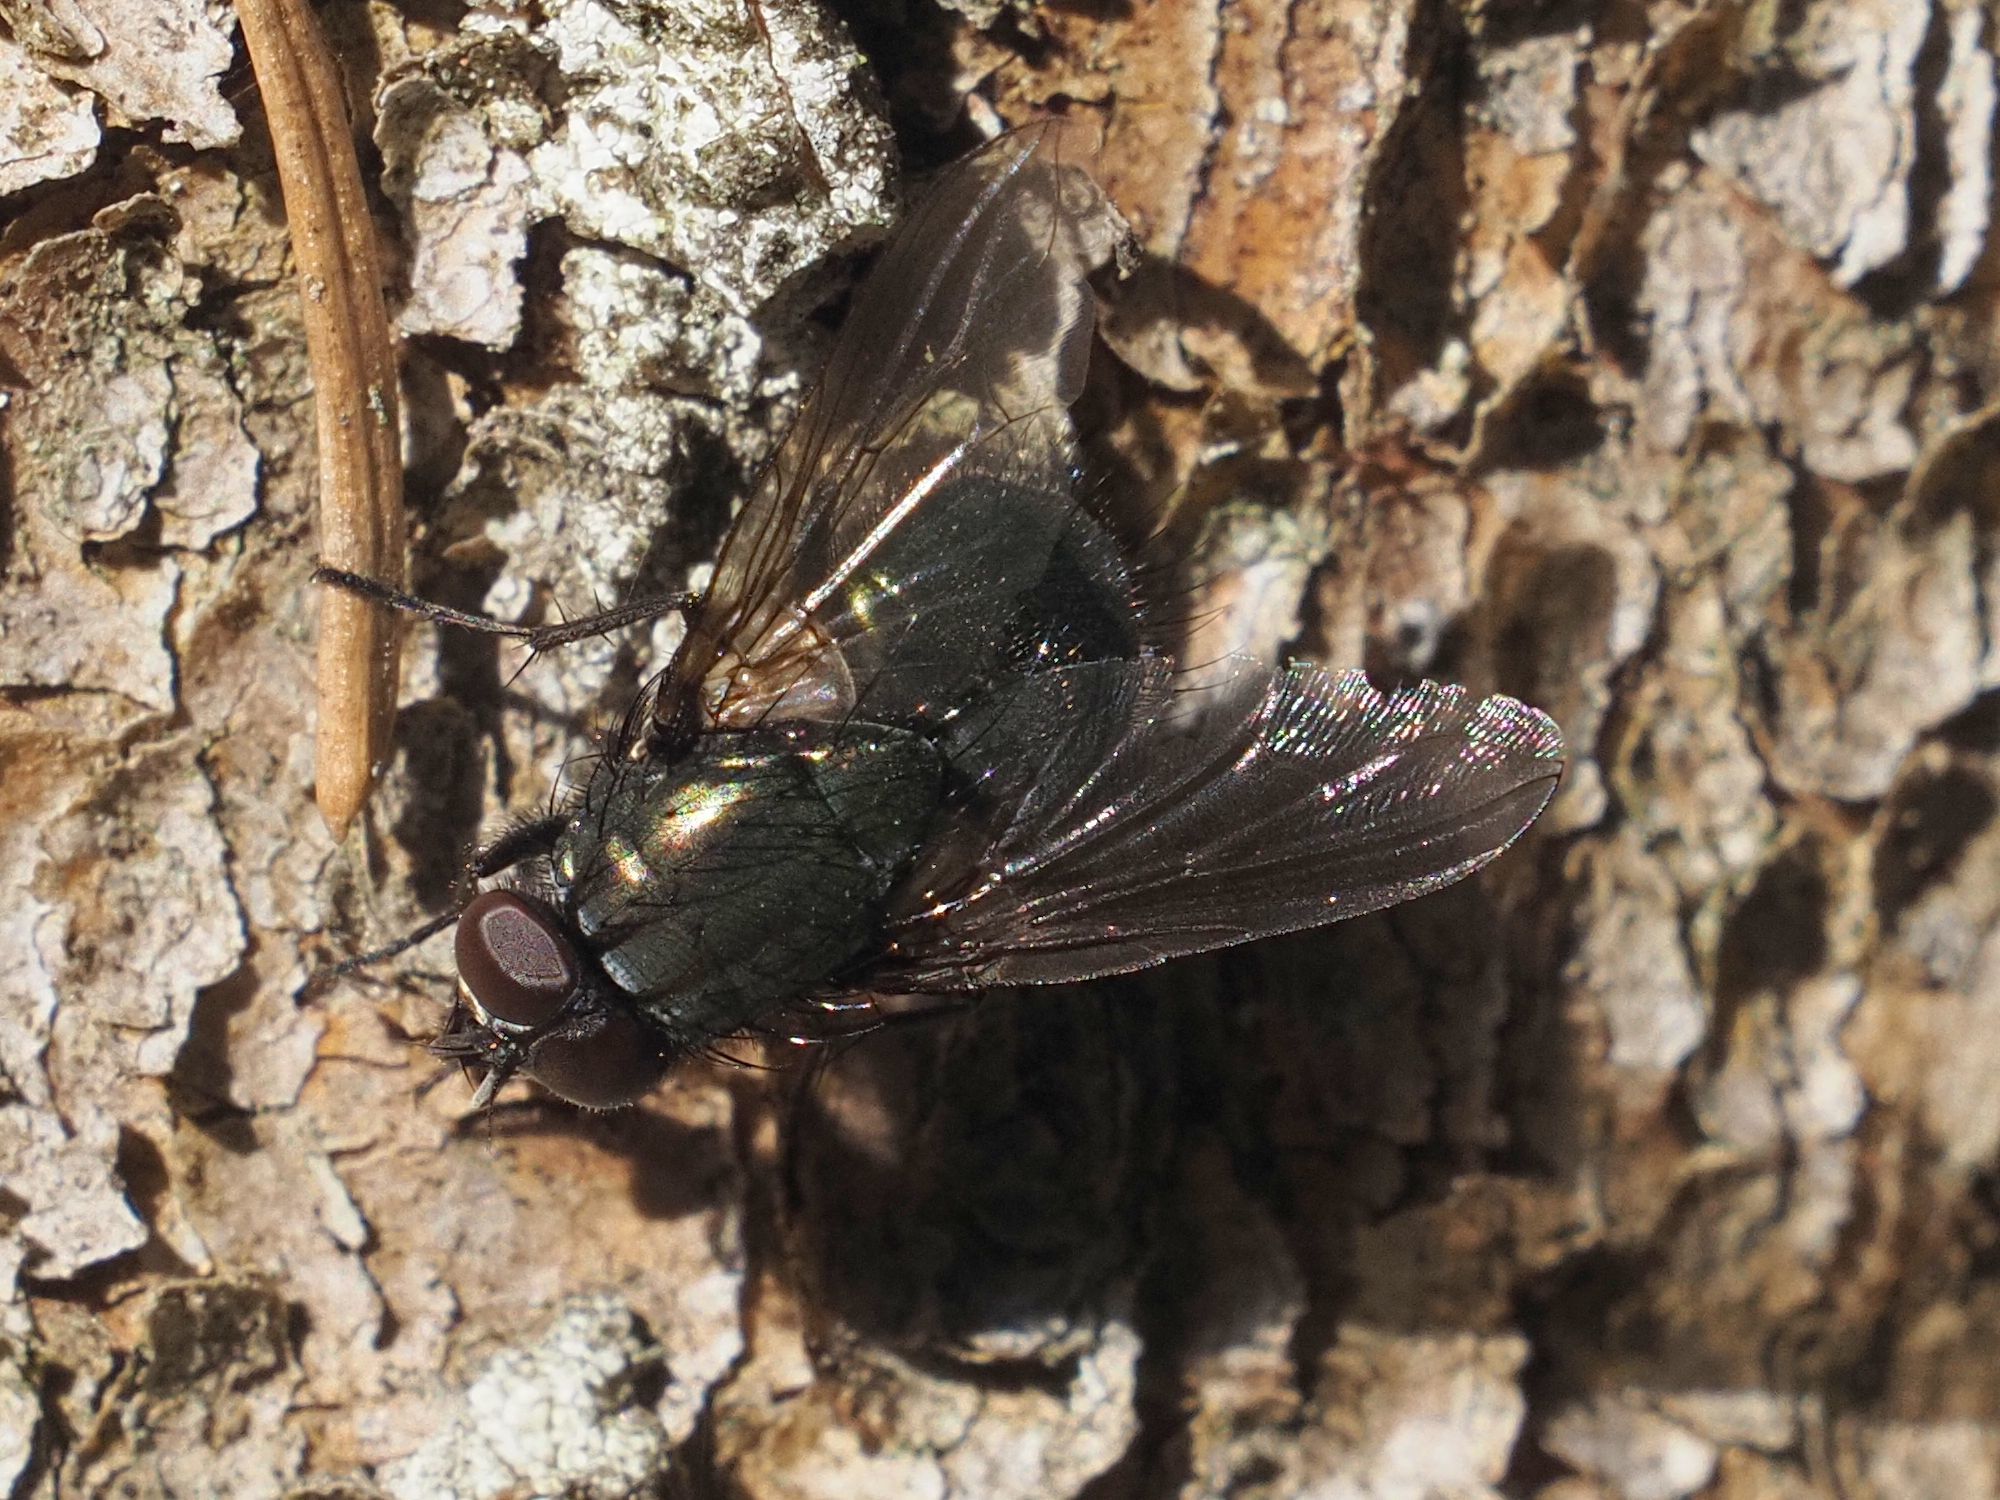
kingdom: Animalia
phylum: Arthropoda
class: Insecta
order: Diptera
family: Muscidae
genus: Dasyphora
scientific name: Dasyphora cyanella
